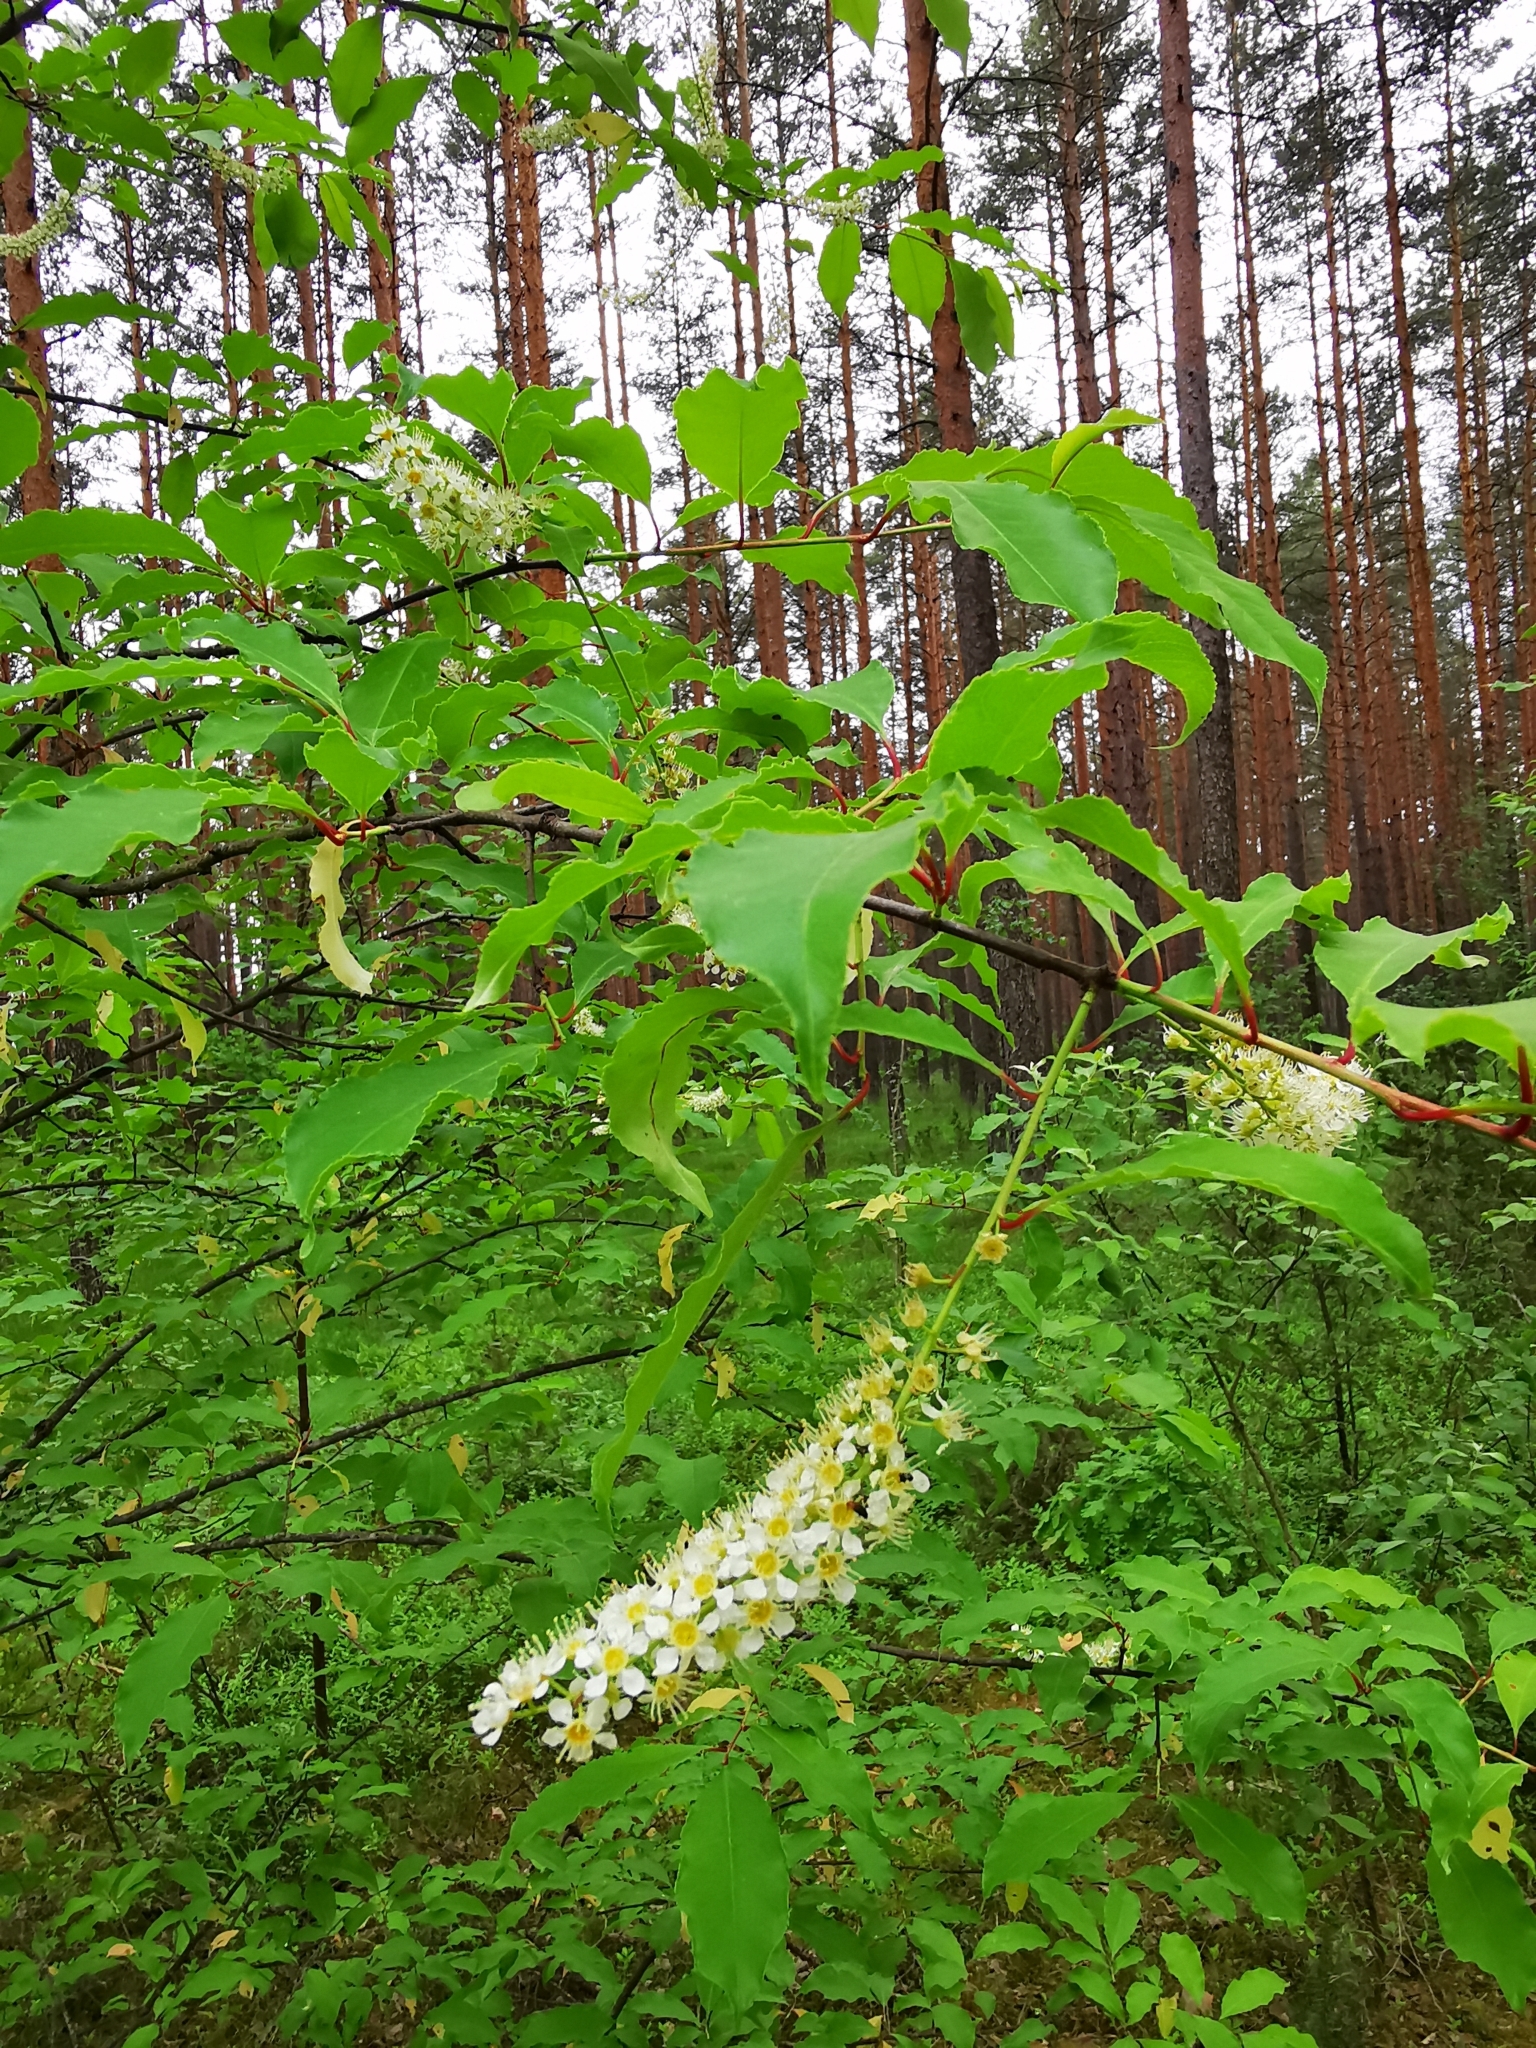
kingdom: Plantae
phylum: Tracheophyta
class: Magnoliopsida
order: Rosales
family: Rosaceae
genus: Prunus
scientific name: Prunus serotina
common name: Black cherry
